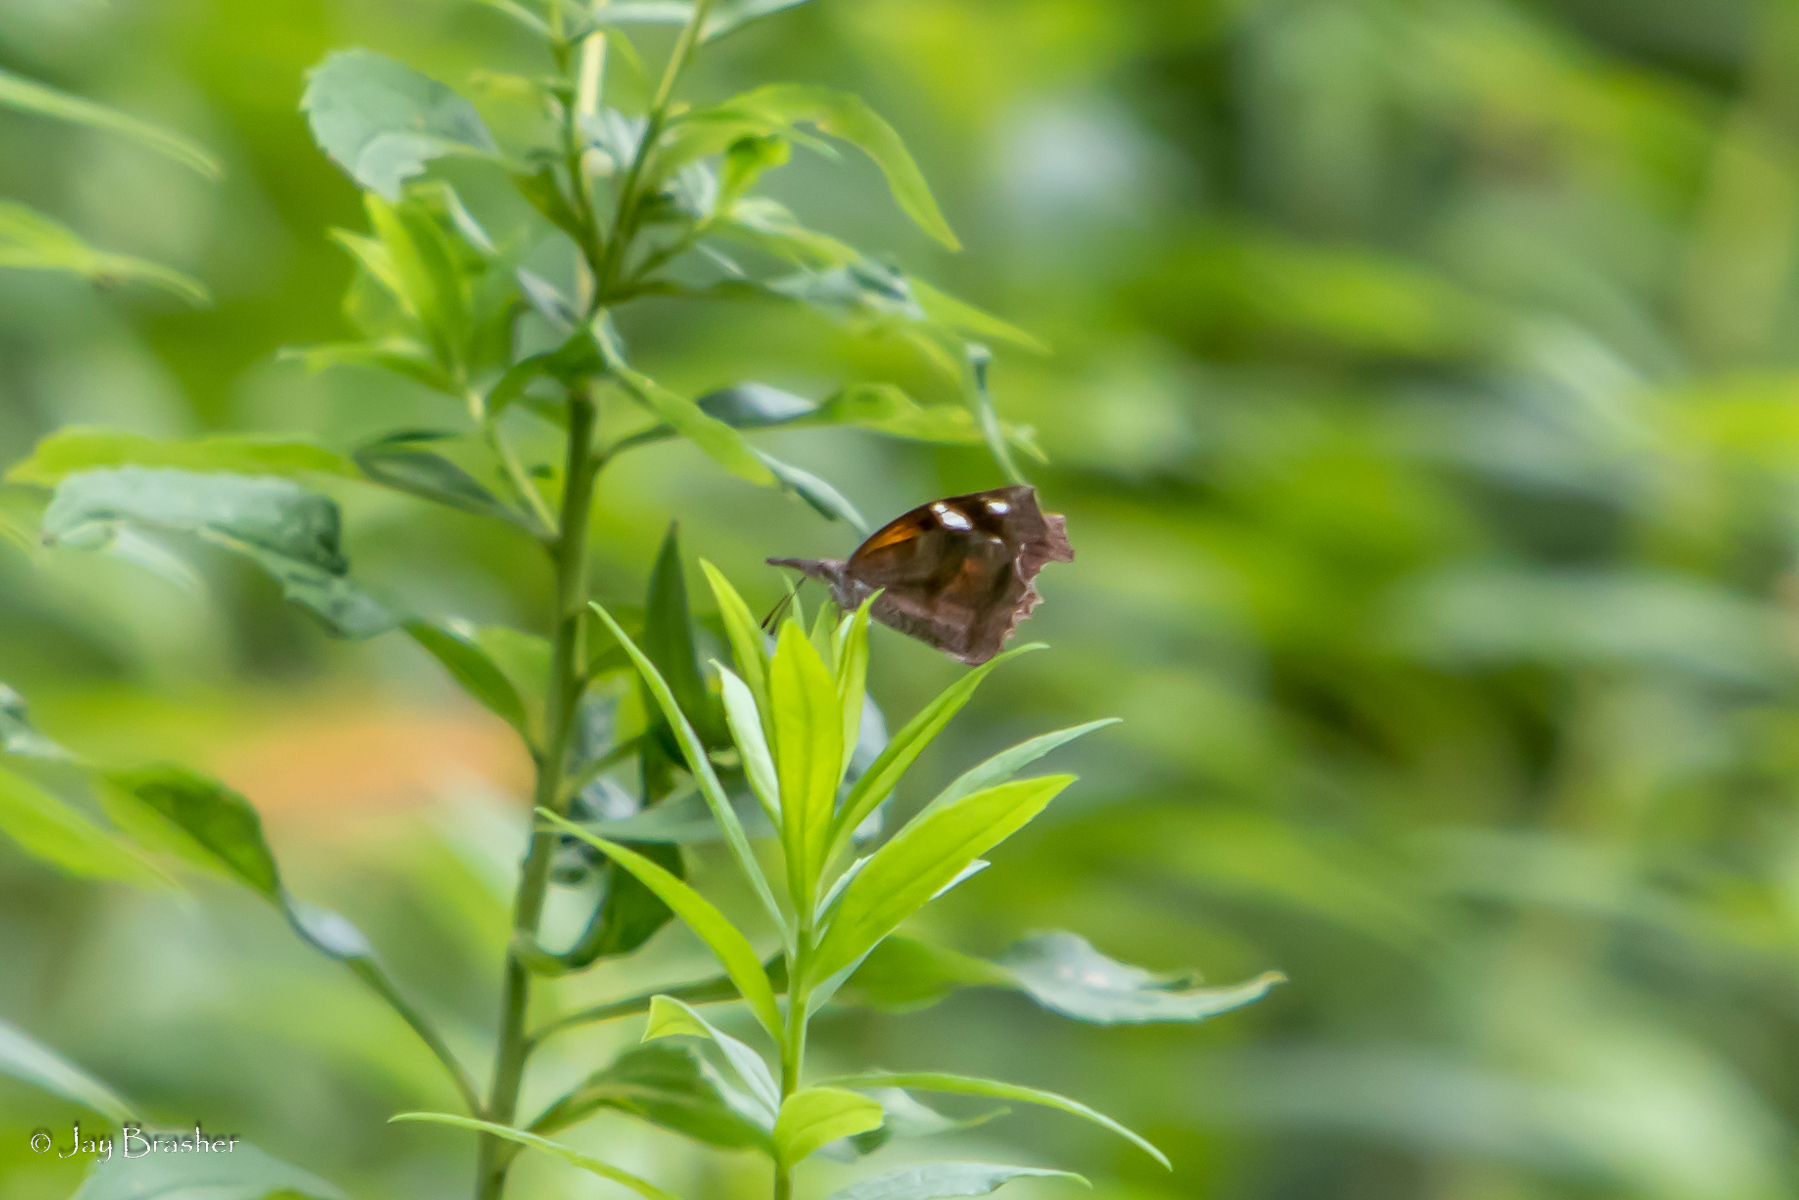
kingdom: Animalia
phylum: Arthropoda
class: Insecta
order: Lepidoptera
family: Nymphalidae
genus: Libytheana
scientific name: Libytheana carinenta
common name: American snout
